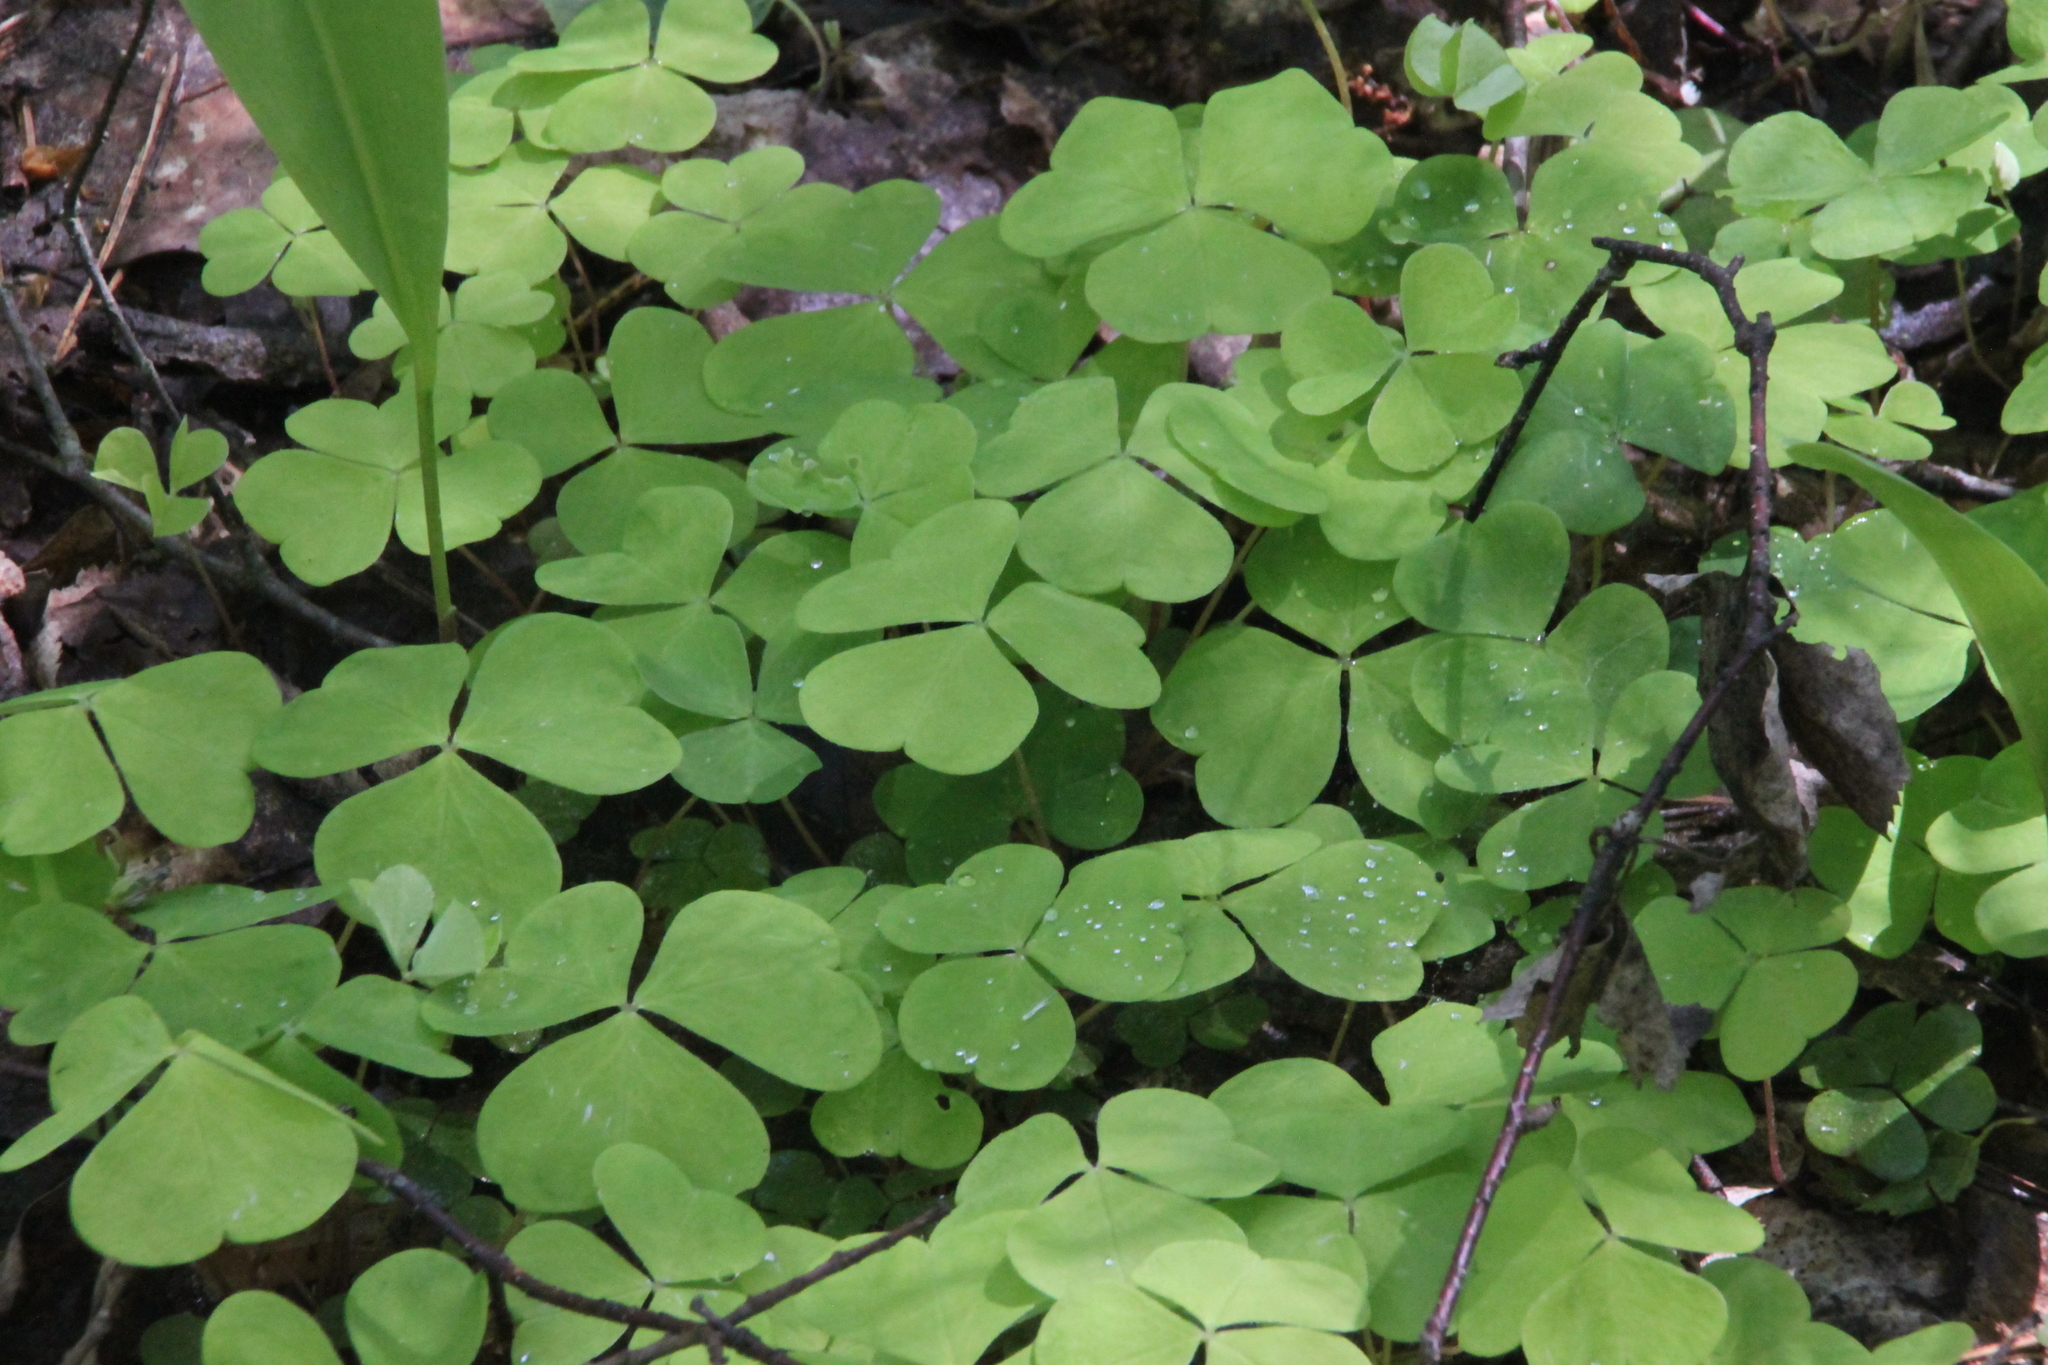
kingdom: Plantae
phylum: Tracheophyta
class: Magnoliopsida
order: Oxalidales
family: Oxalidaceae
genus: Oxalis
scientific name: Oxalis acetosella
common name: Wood-sorrel
